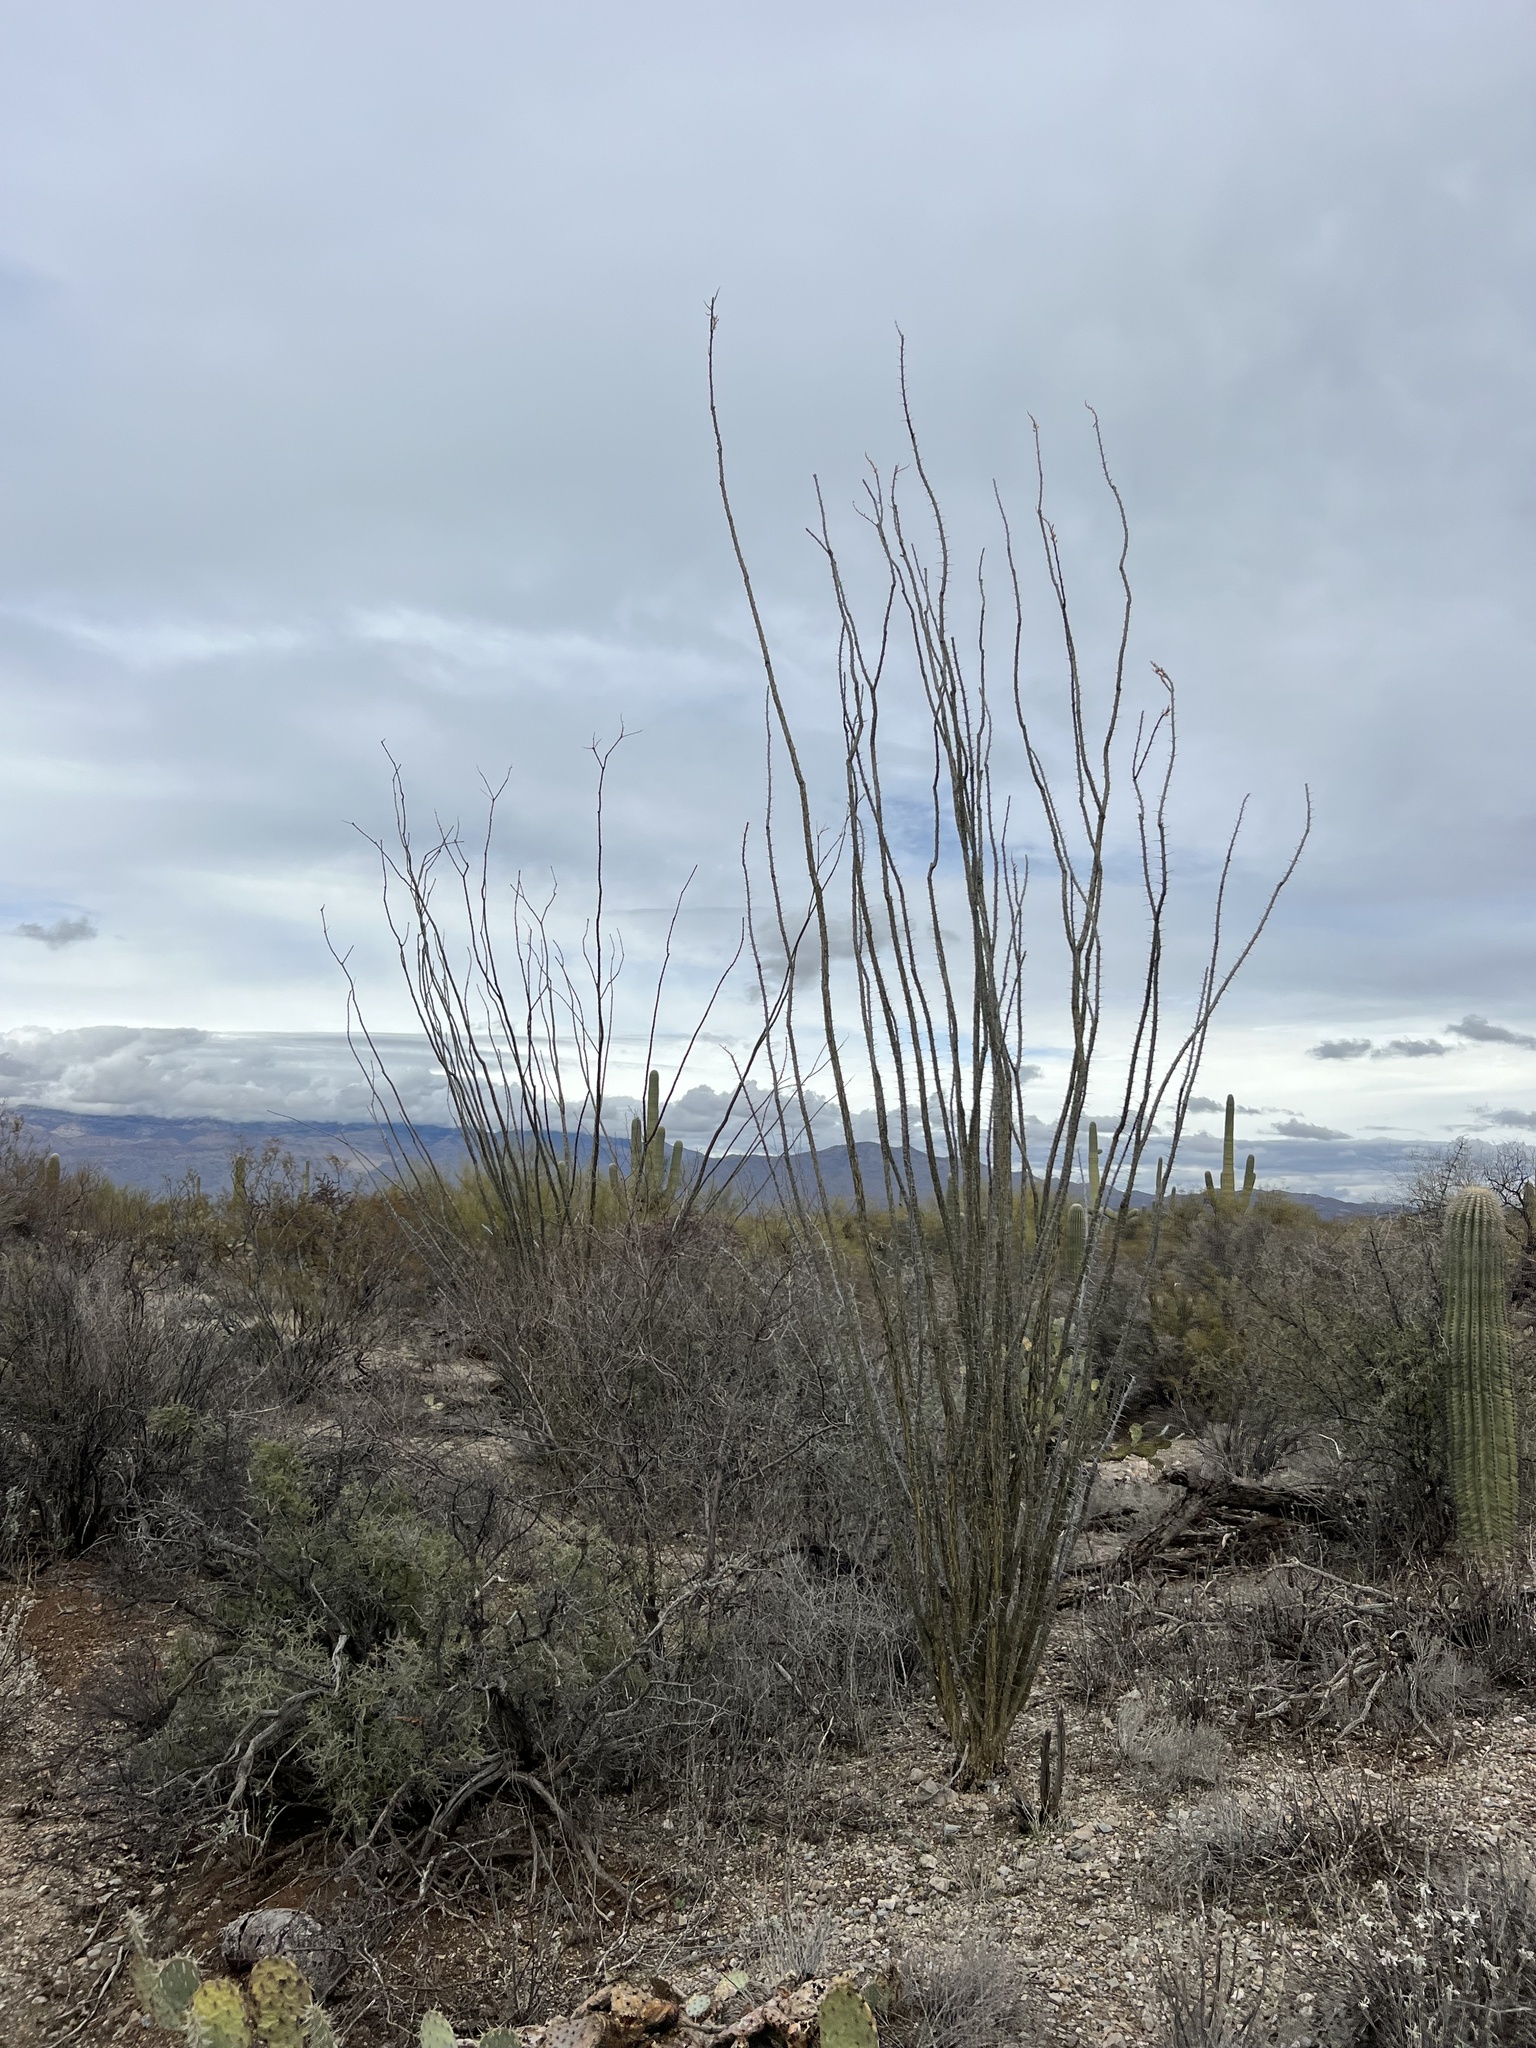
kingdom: Plantae
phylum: Tracheophyta
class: Magnoliopsida
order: Ericales
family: Fouquieriaceae
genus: Fouquieria
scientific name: Fouquieria splendens
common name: Vine-cactus
